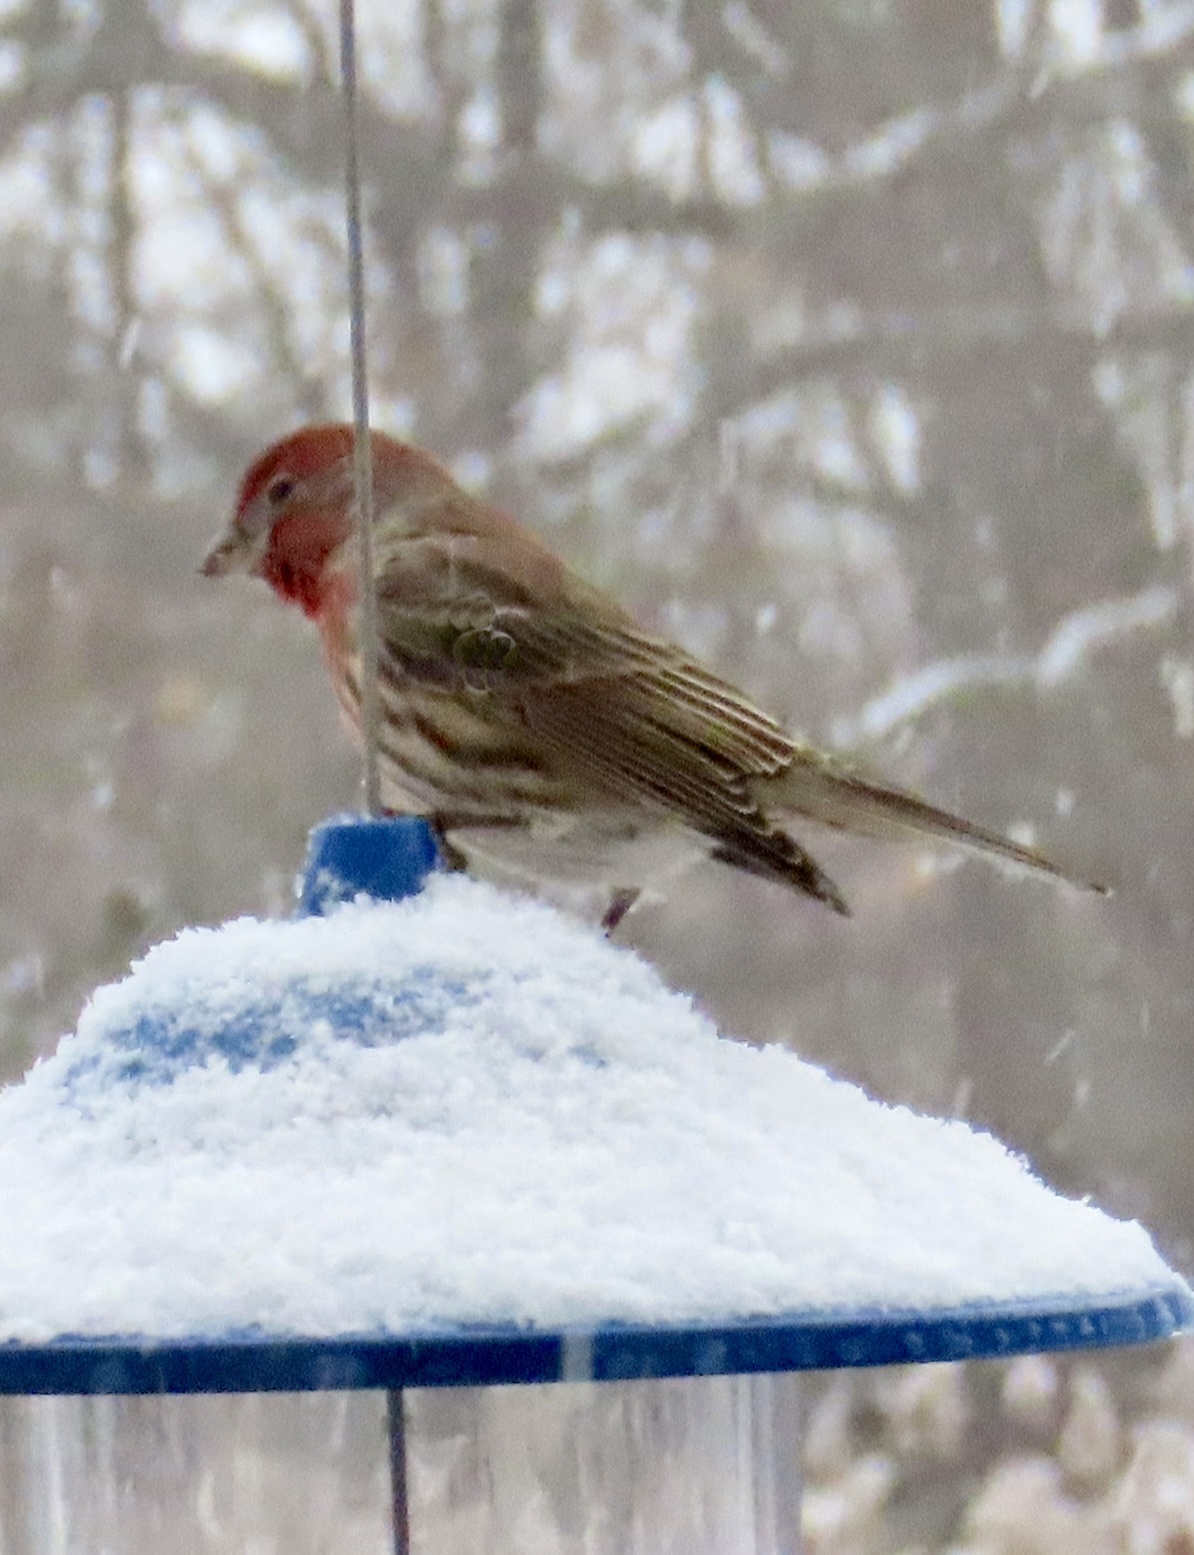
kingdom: Animalia
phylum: Chordata
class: Aves
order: Passeriformes
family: Fringillidae
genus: Haemorhous
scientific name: Haemorhous mexicanus
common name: House finch
